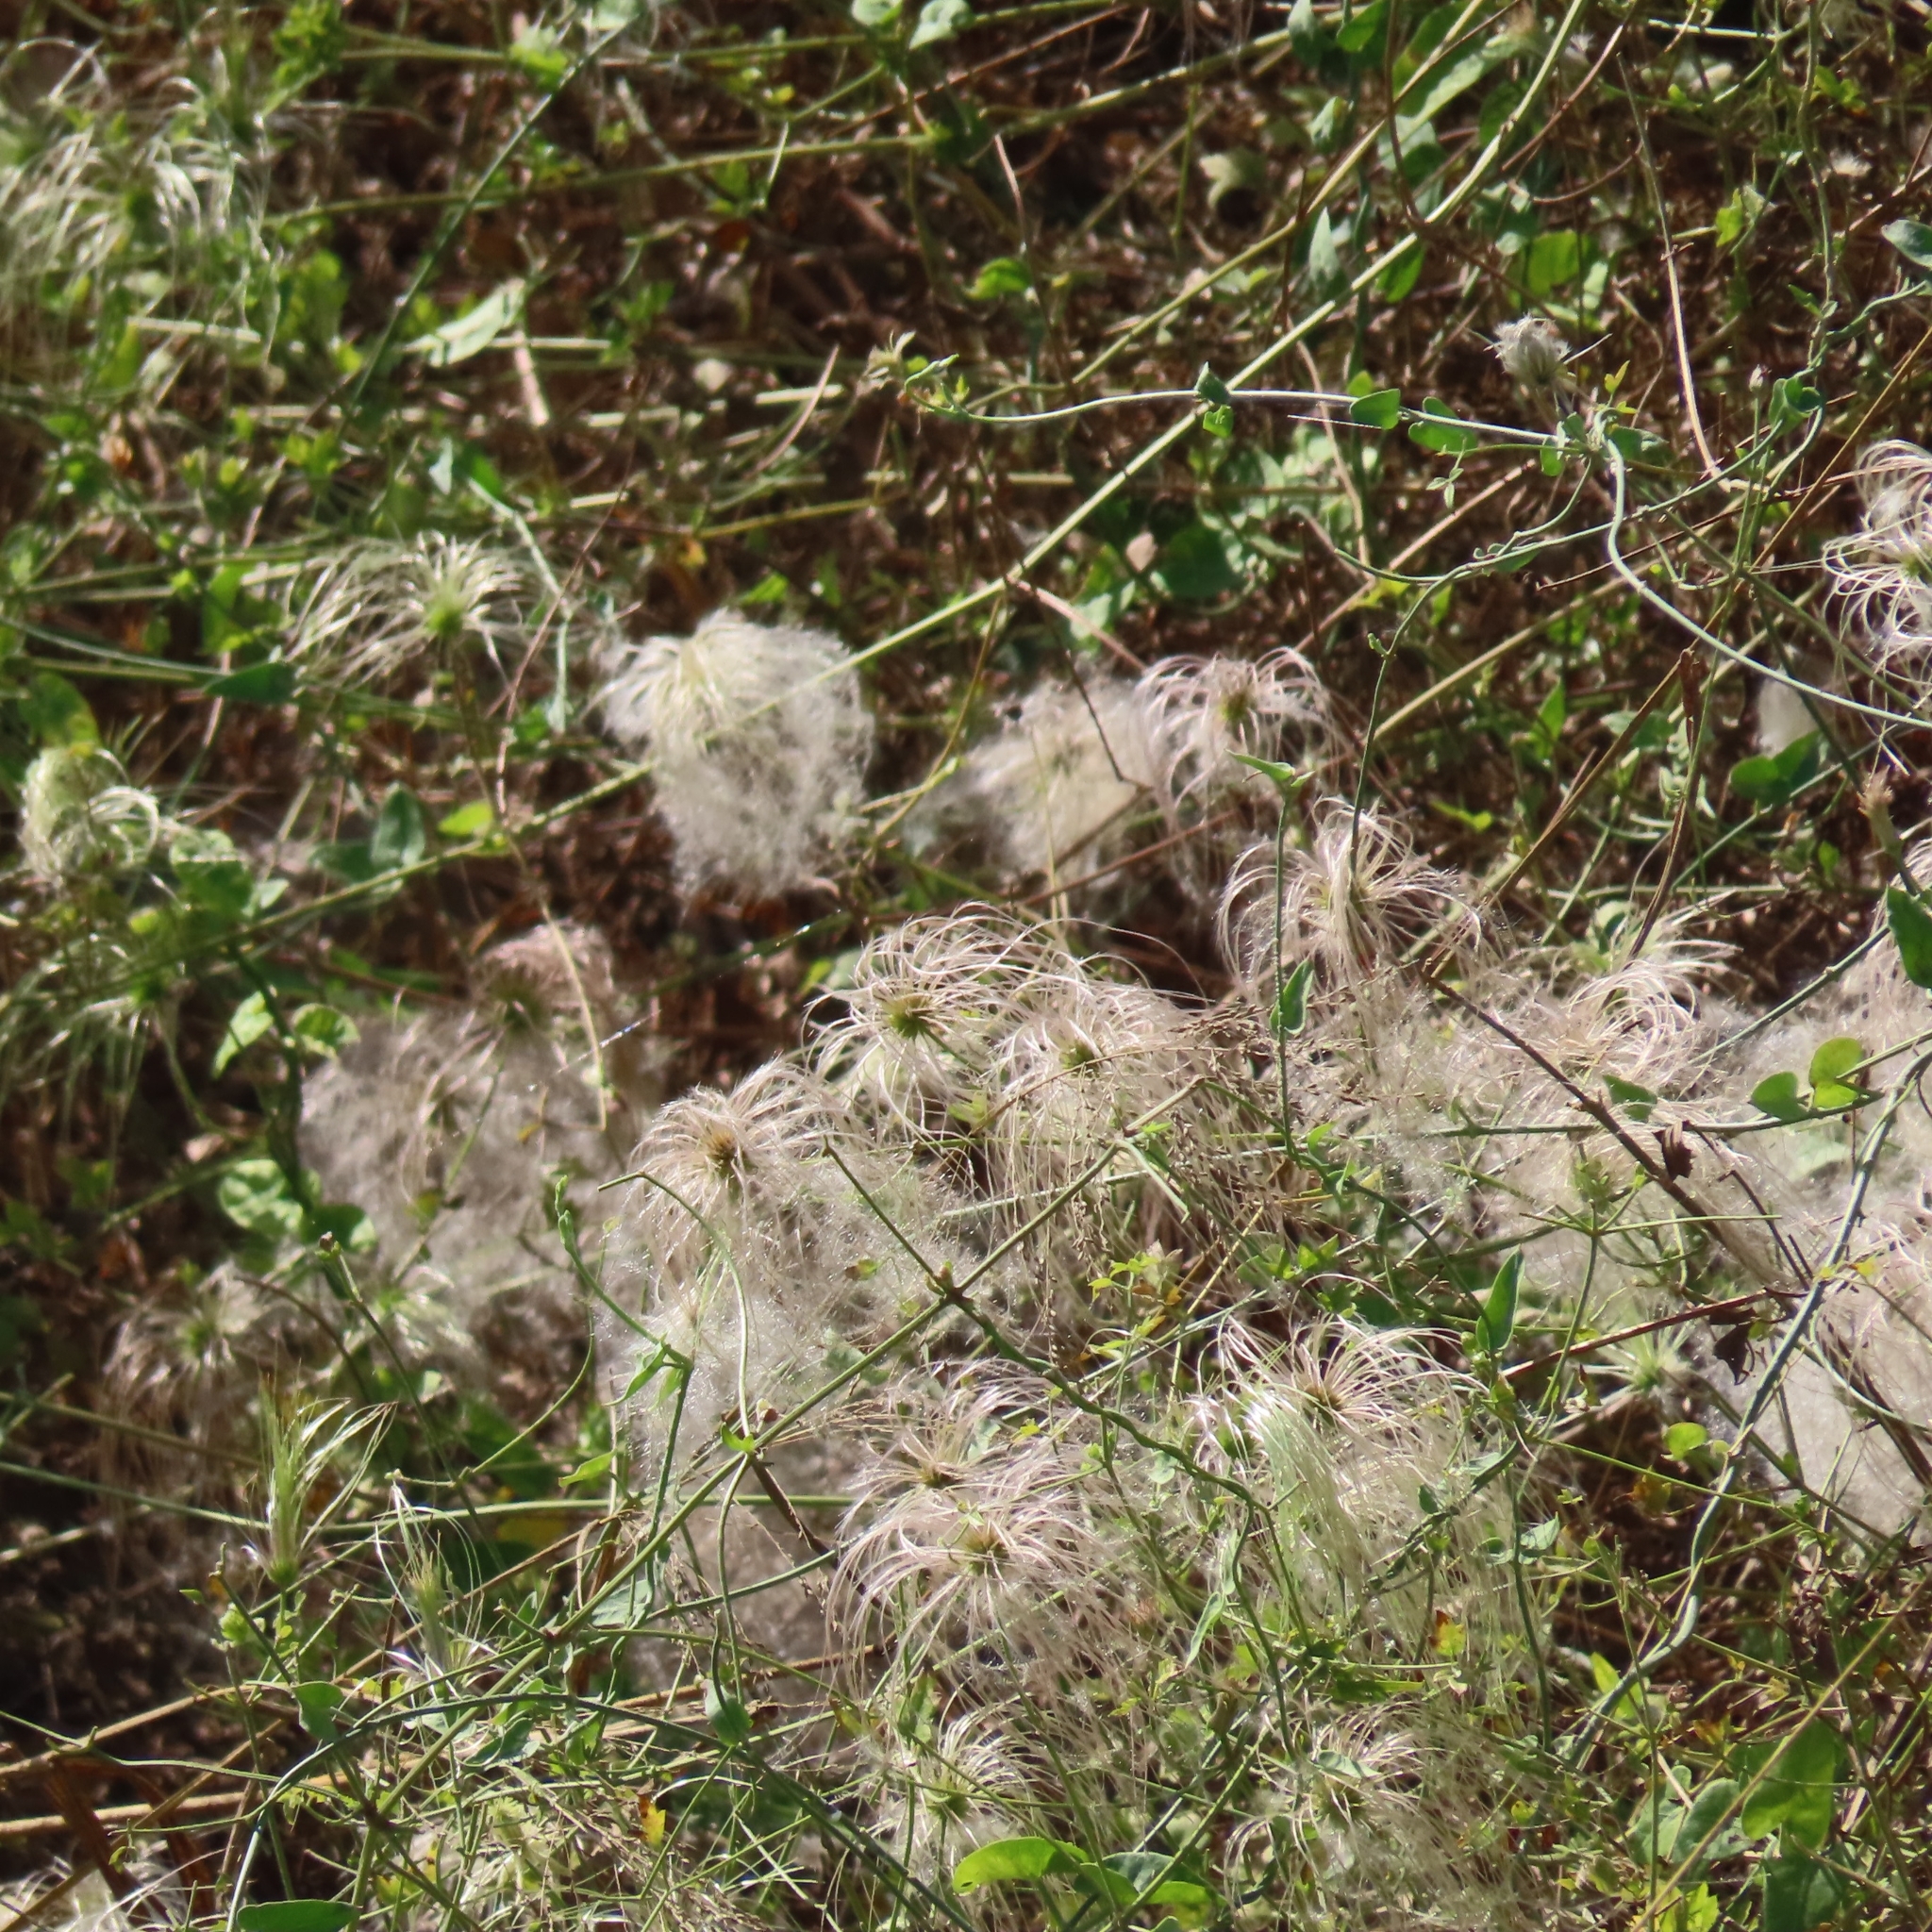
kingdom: Plantae
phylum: Tracheophyta
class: Magnoliopsida
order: Ranunculales
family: Ranunculaceae
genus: Clematis
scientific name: Clematis drummondii
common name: Texas virgin's bower
